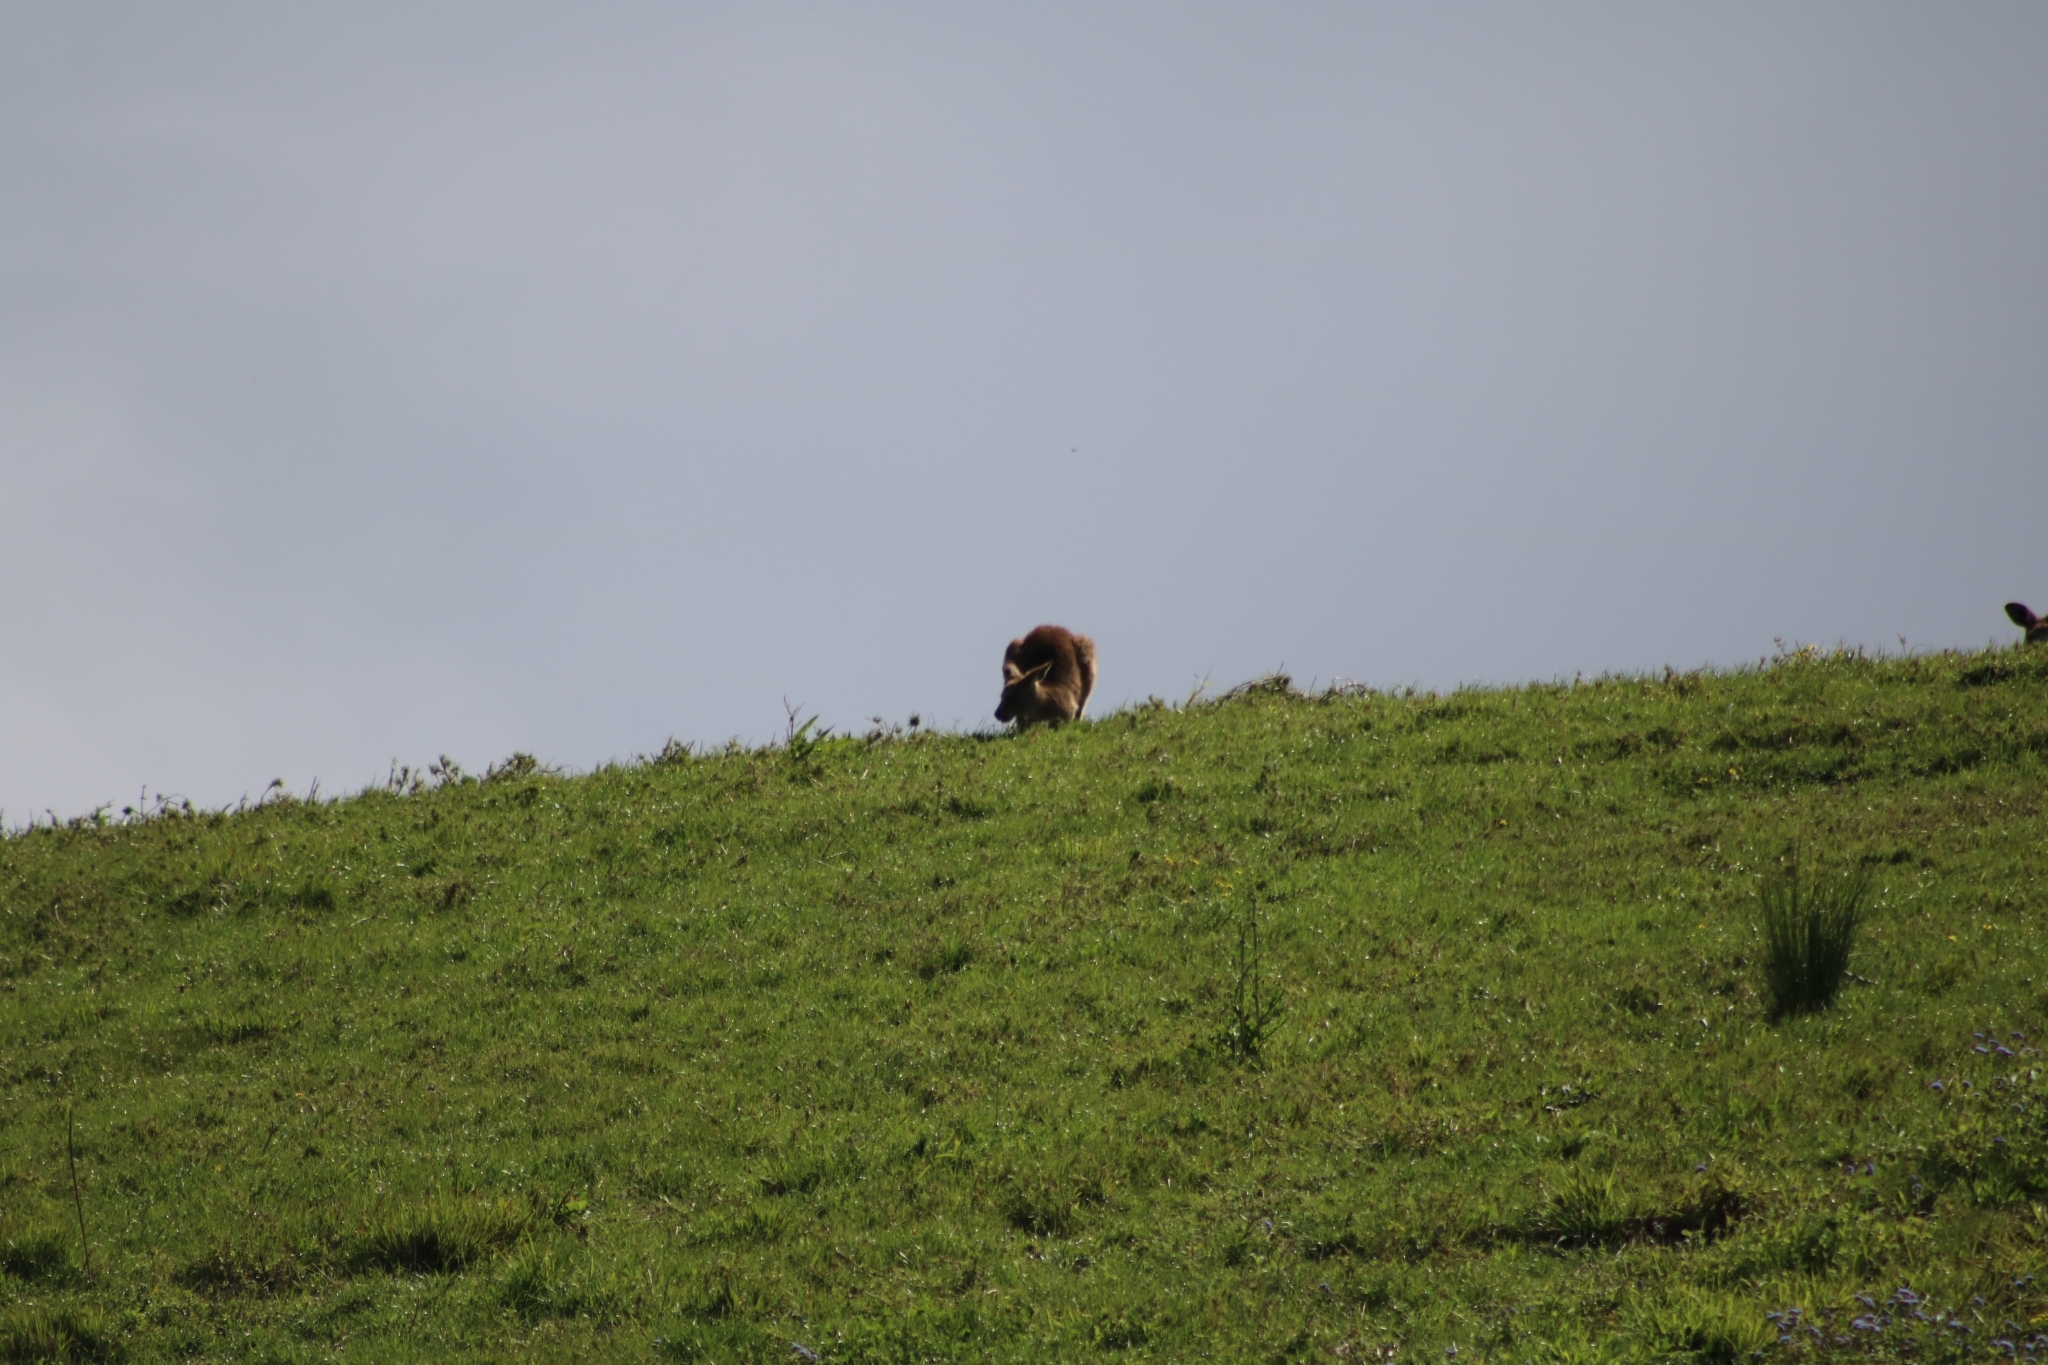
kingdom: Animalia
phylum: Chordata
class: Mammalia
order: Diprotodontia
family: Macropodidae
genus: Macropus
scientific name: Macropus giganteus
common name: Eastern grey kangaroo
